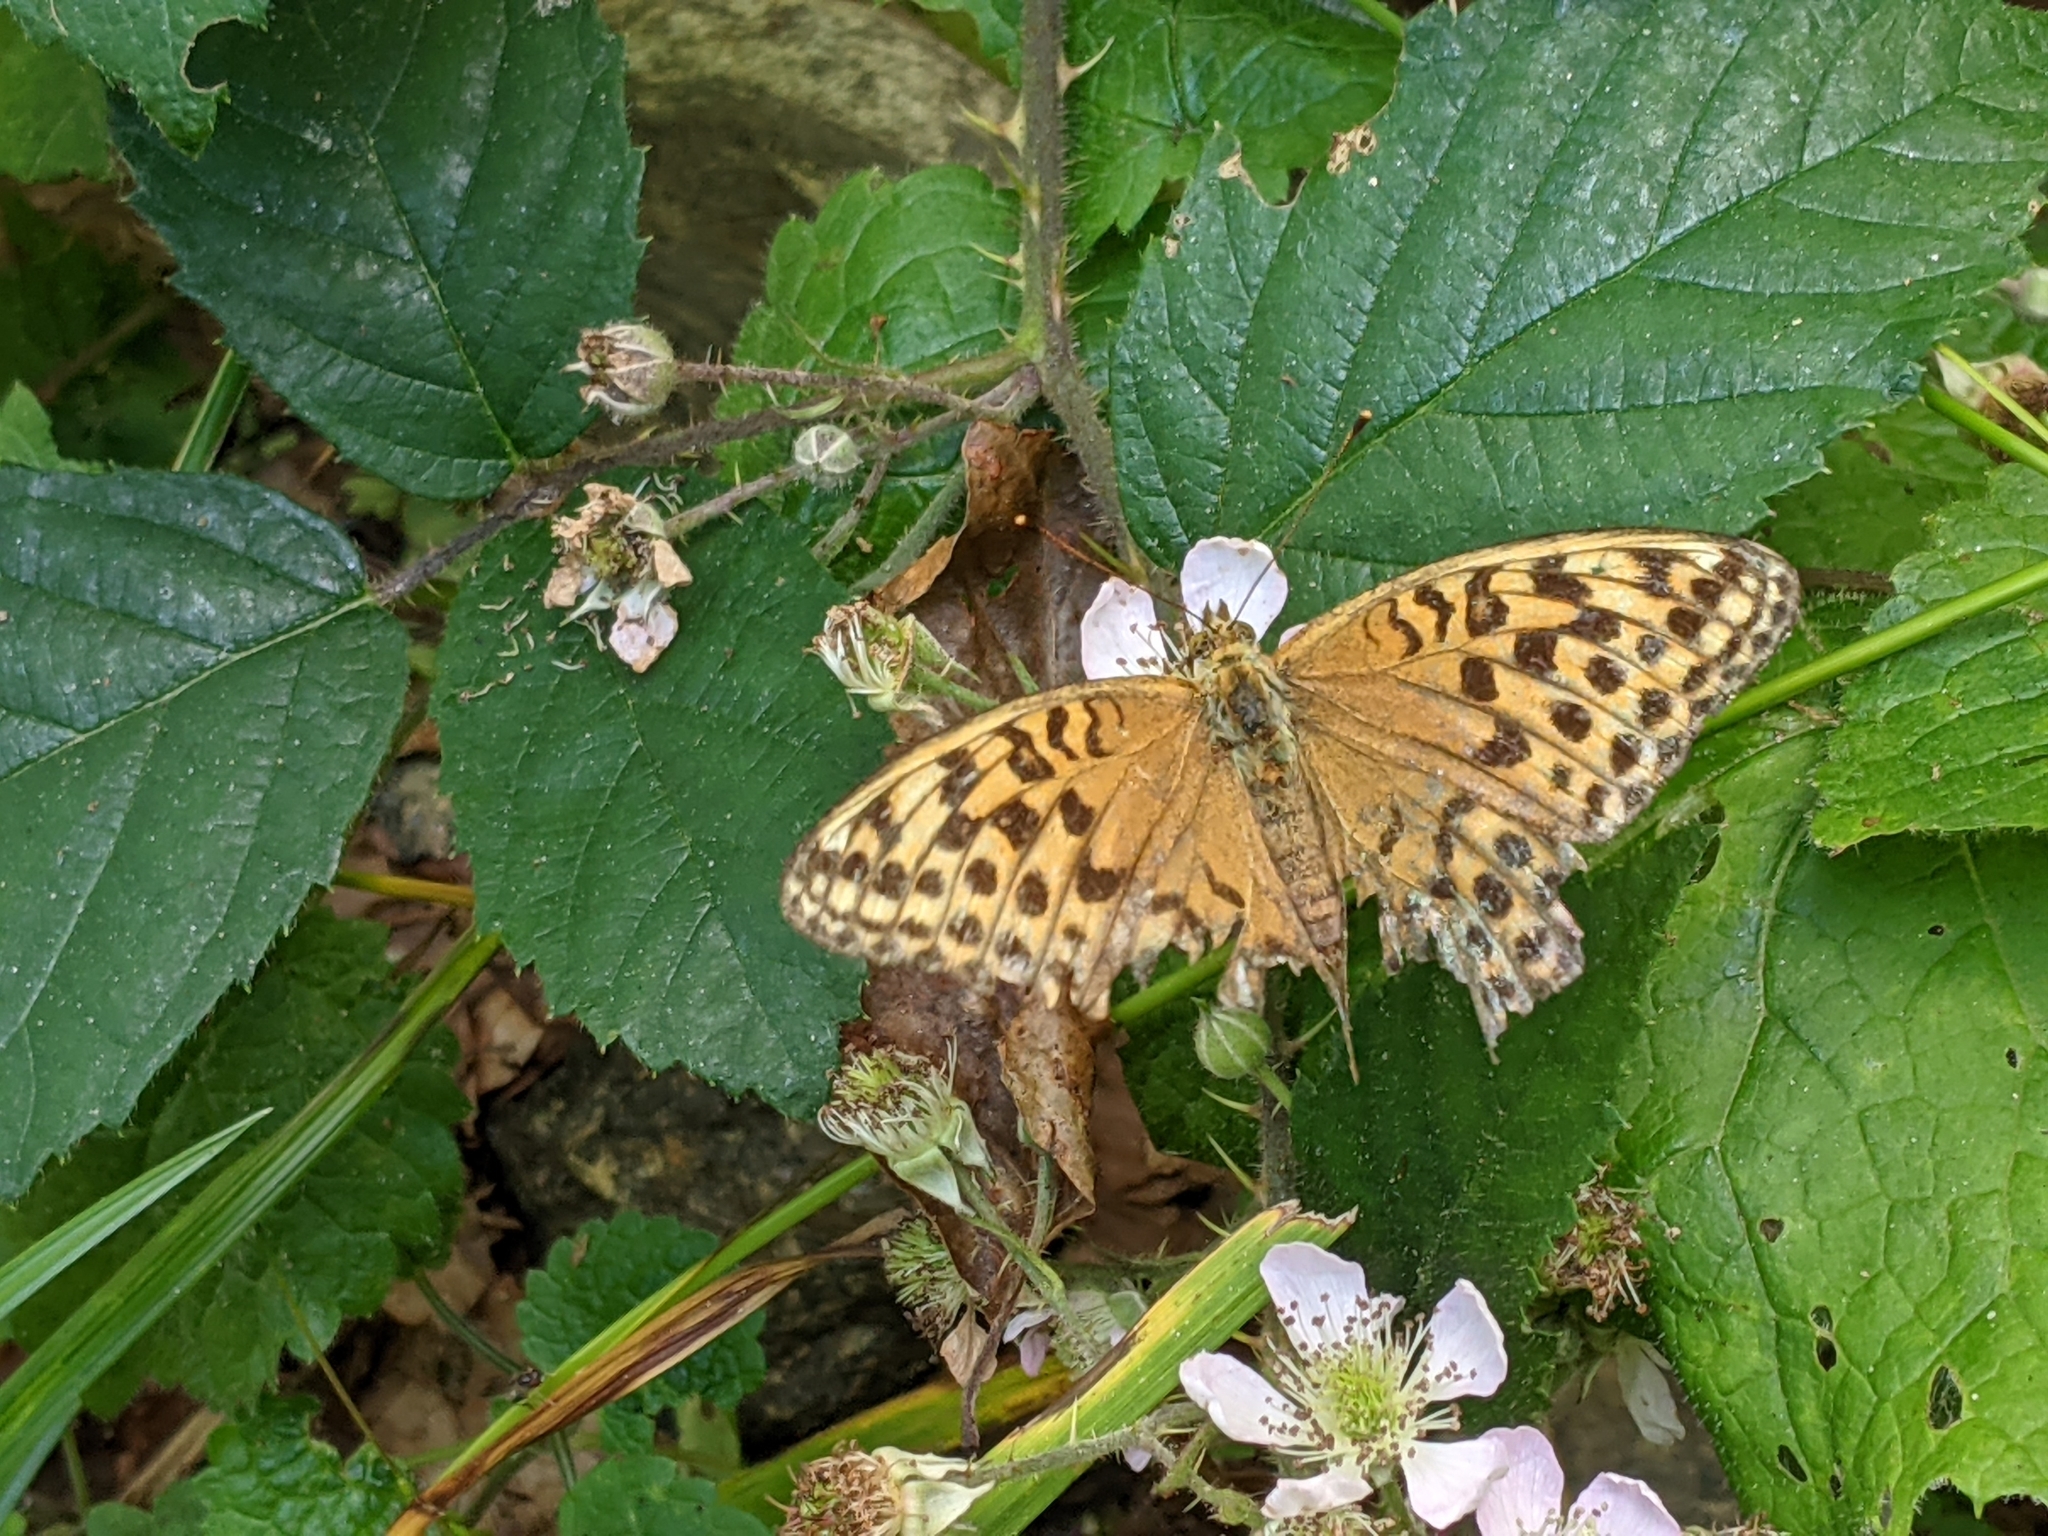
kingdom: Animalia
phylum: Arthropoda
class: Insecta
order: Lepidoptera
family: Nymphalidae
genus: Argynnis
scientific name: Argynnis paphia
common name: Silver-washed fritillary
